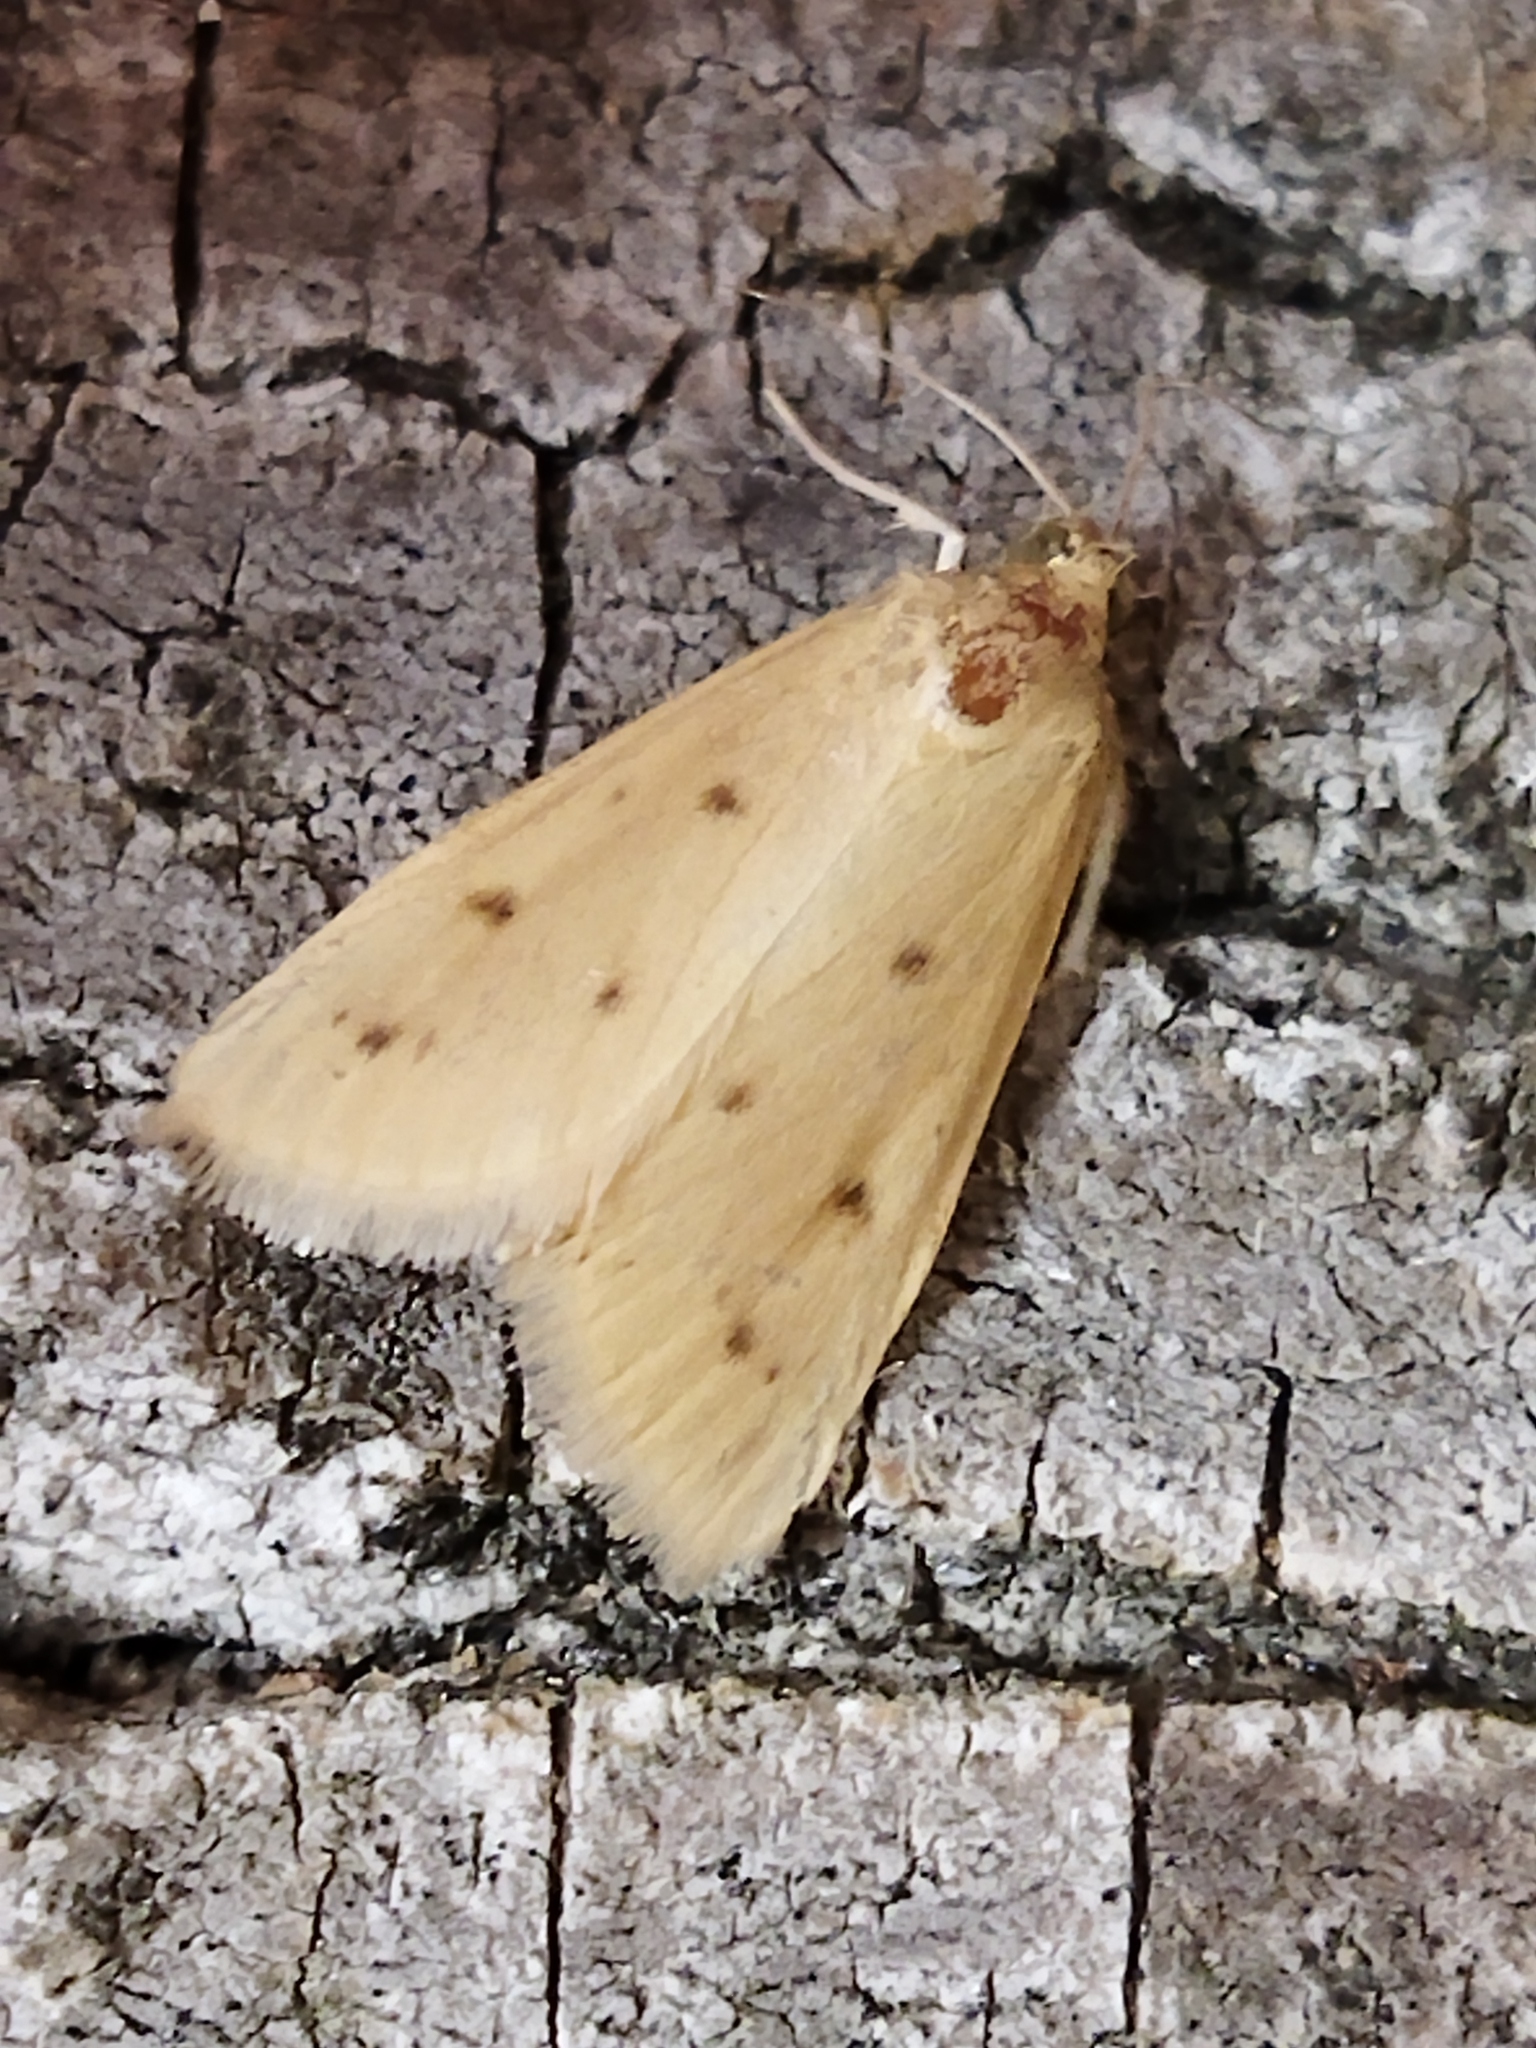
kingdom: Animalia
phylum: Arthropoda
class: Insecta
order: Lepidoptera
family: Crambidae
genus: Achyra
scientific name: Achyra nudalis
